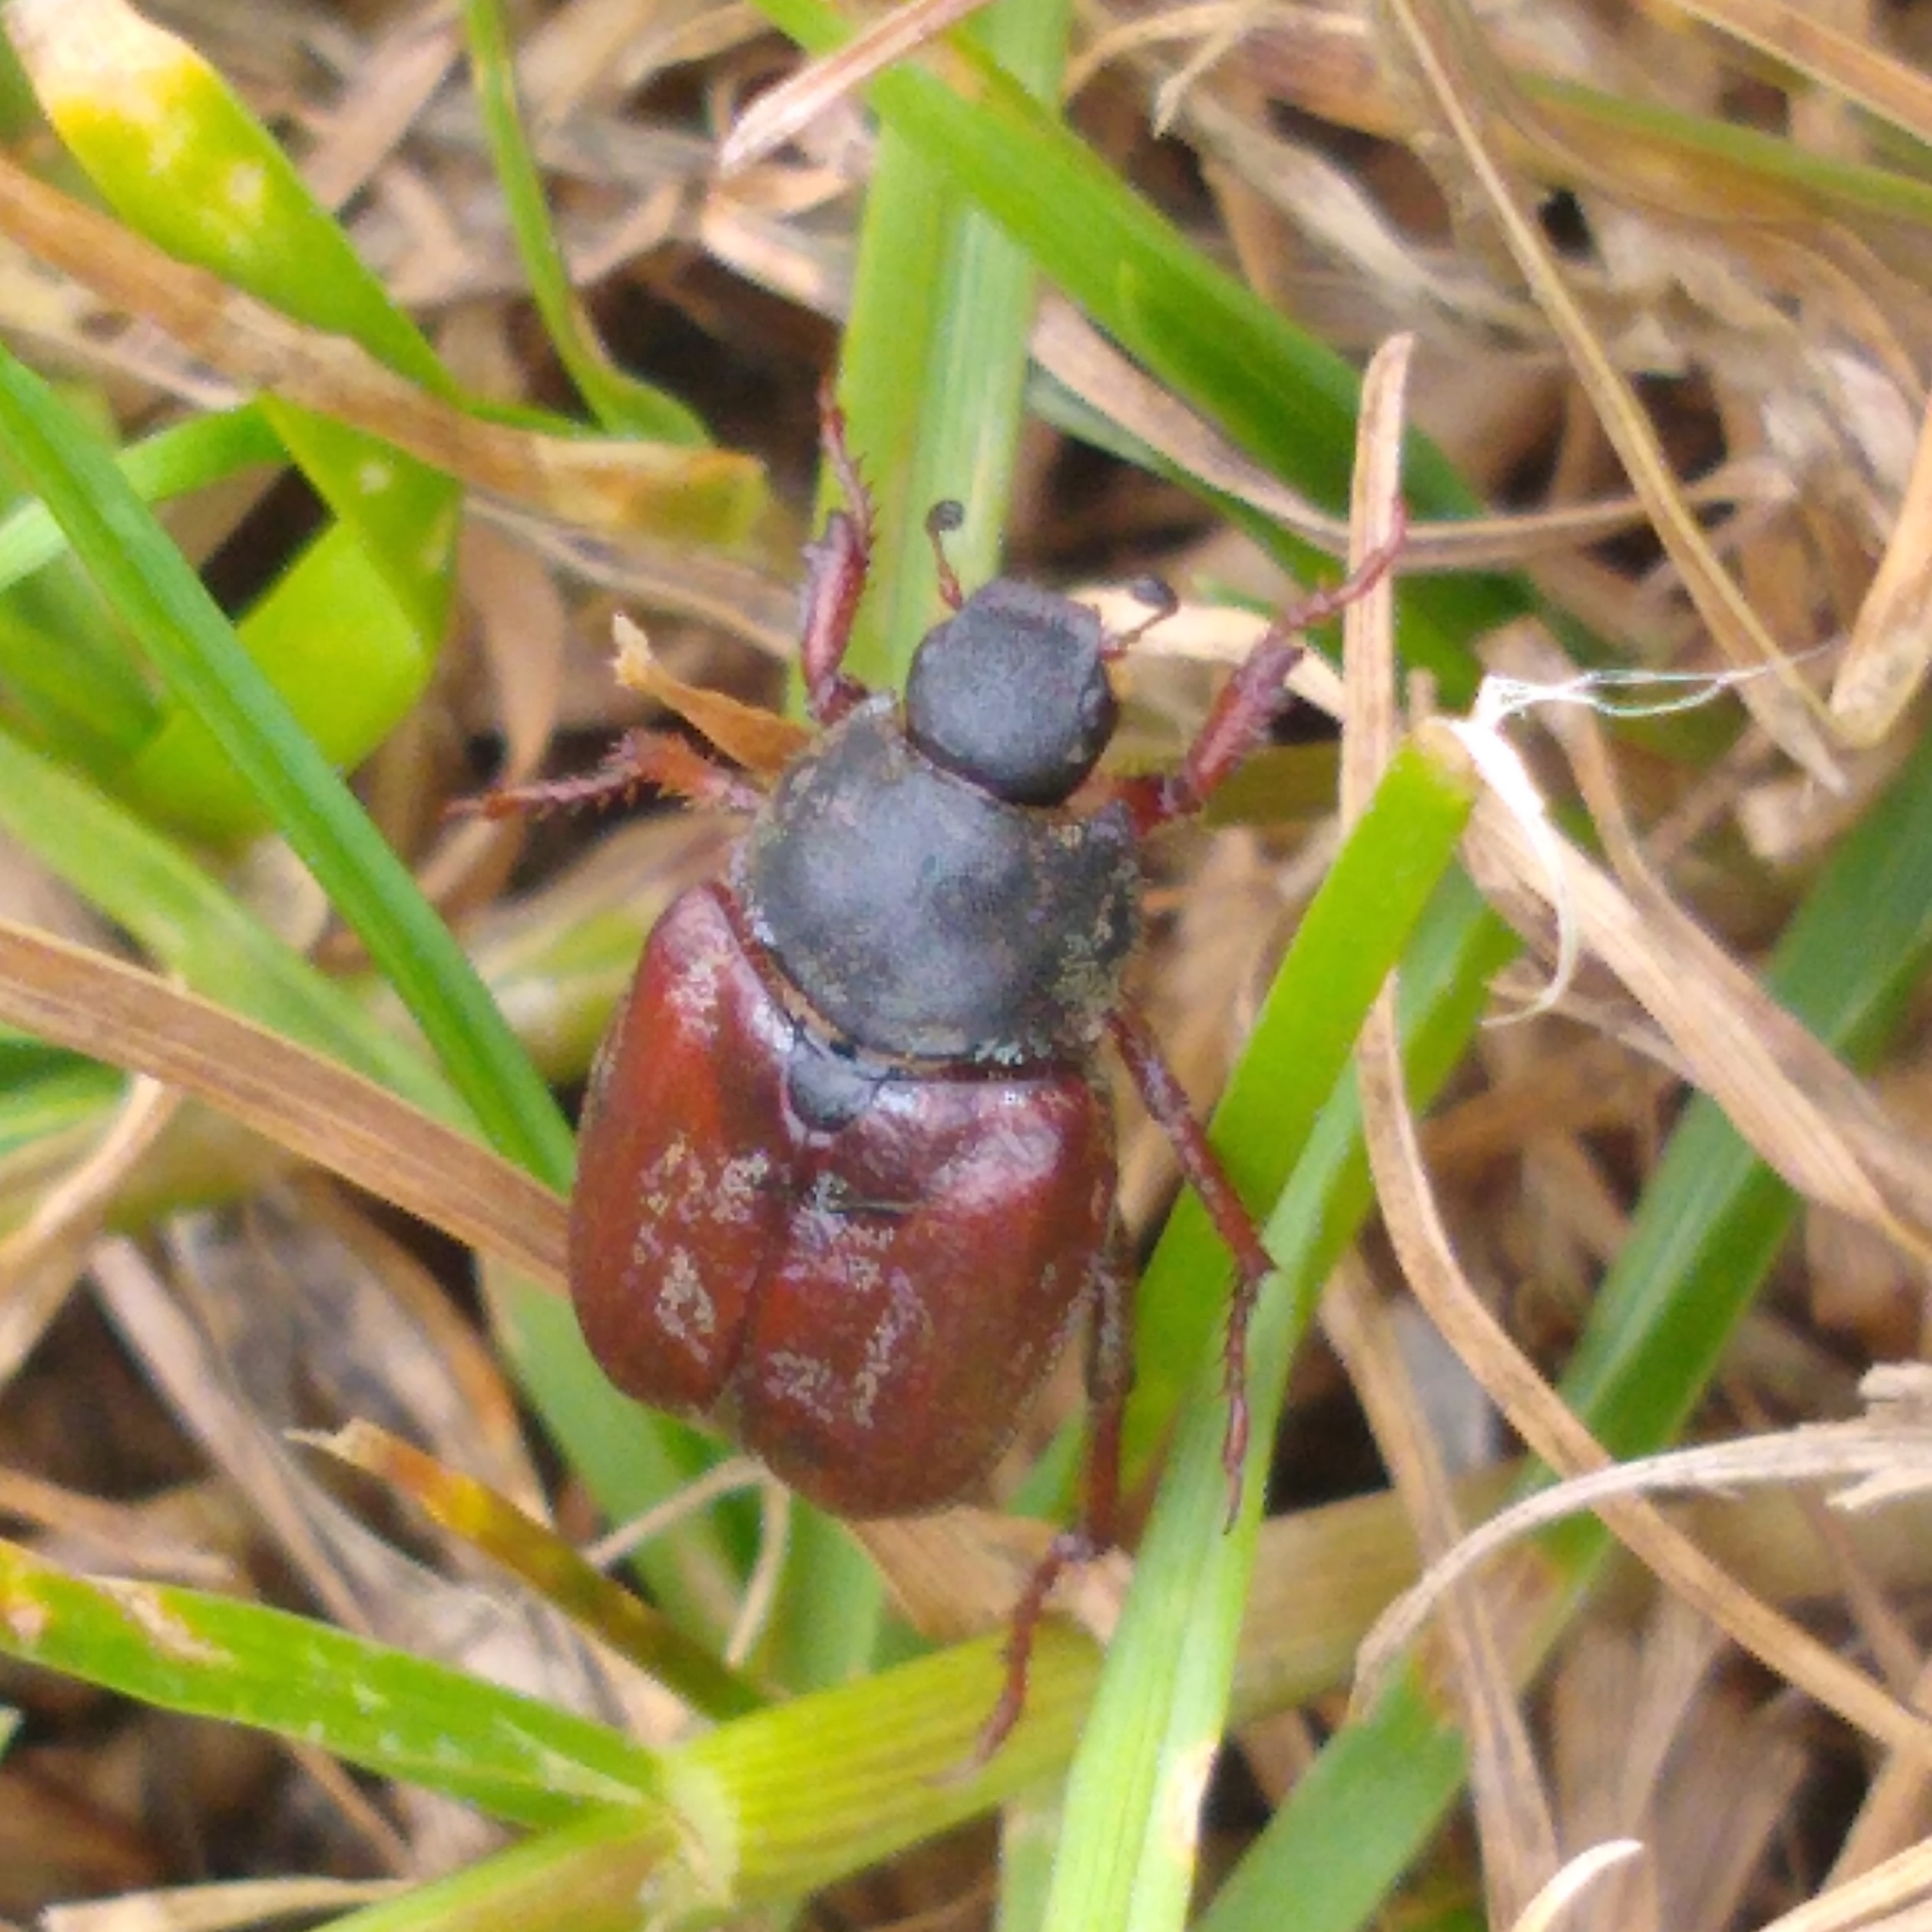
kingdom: Animalia
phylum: Arthropoda
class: Insecta
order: Coleoptera
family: Scarabaeidae
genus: Hoplia
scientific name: Hoplia philanthus
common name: Welsh chafer
